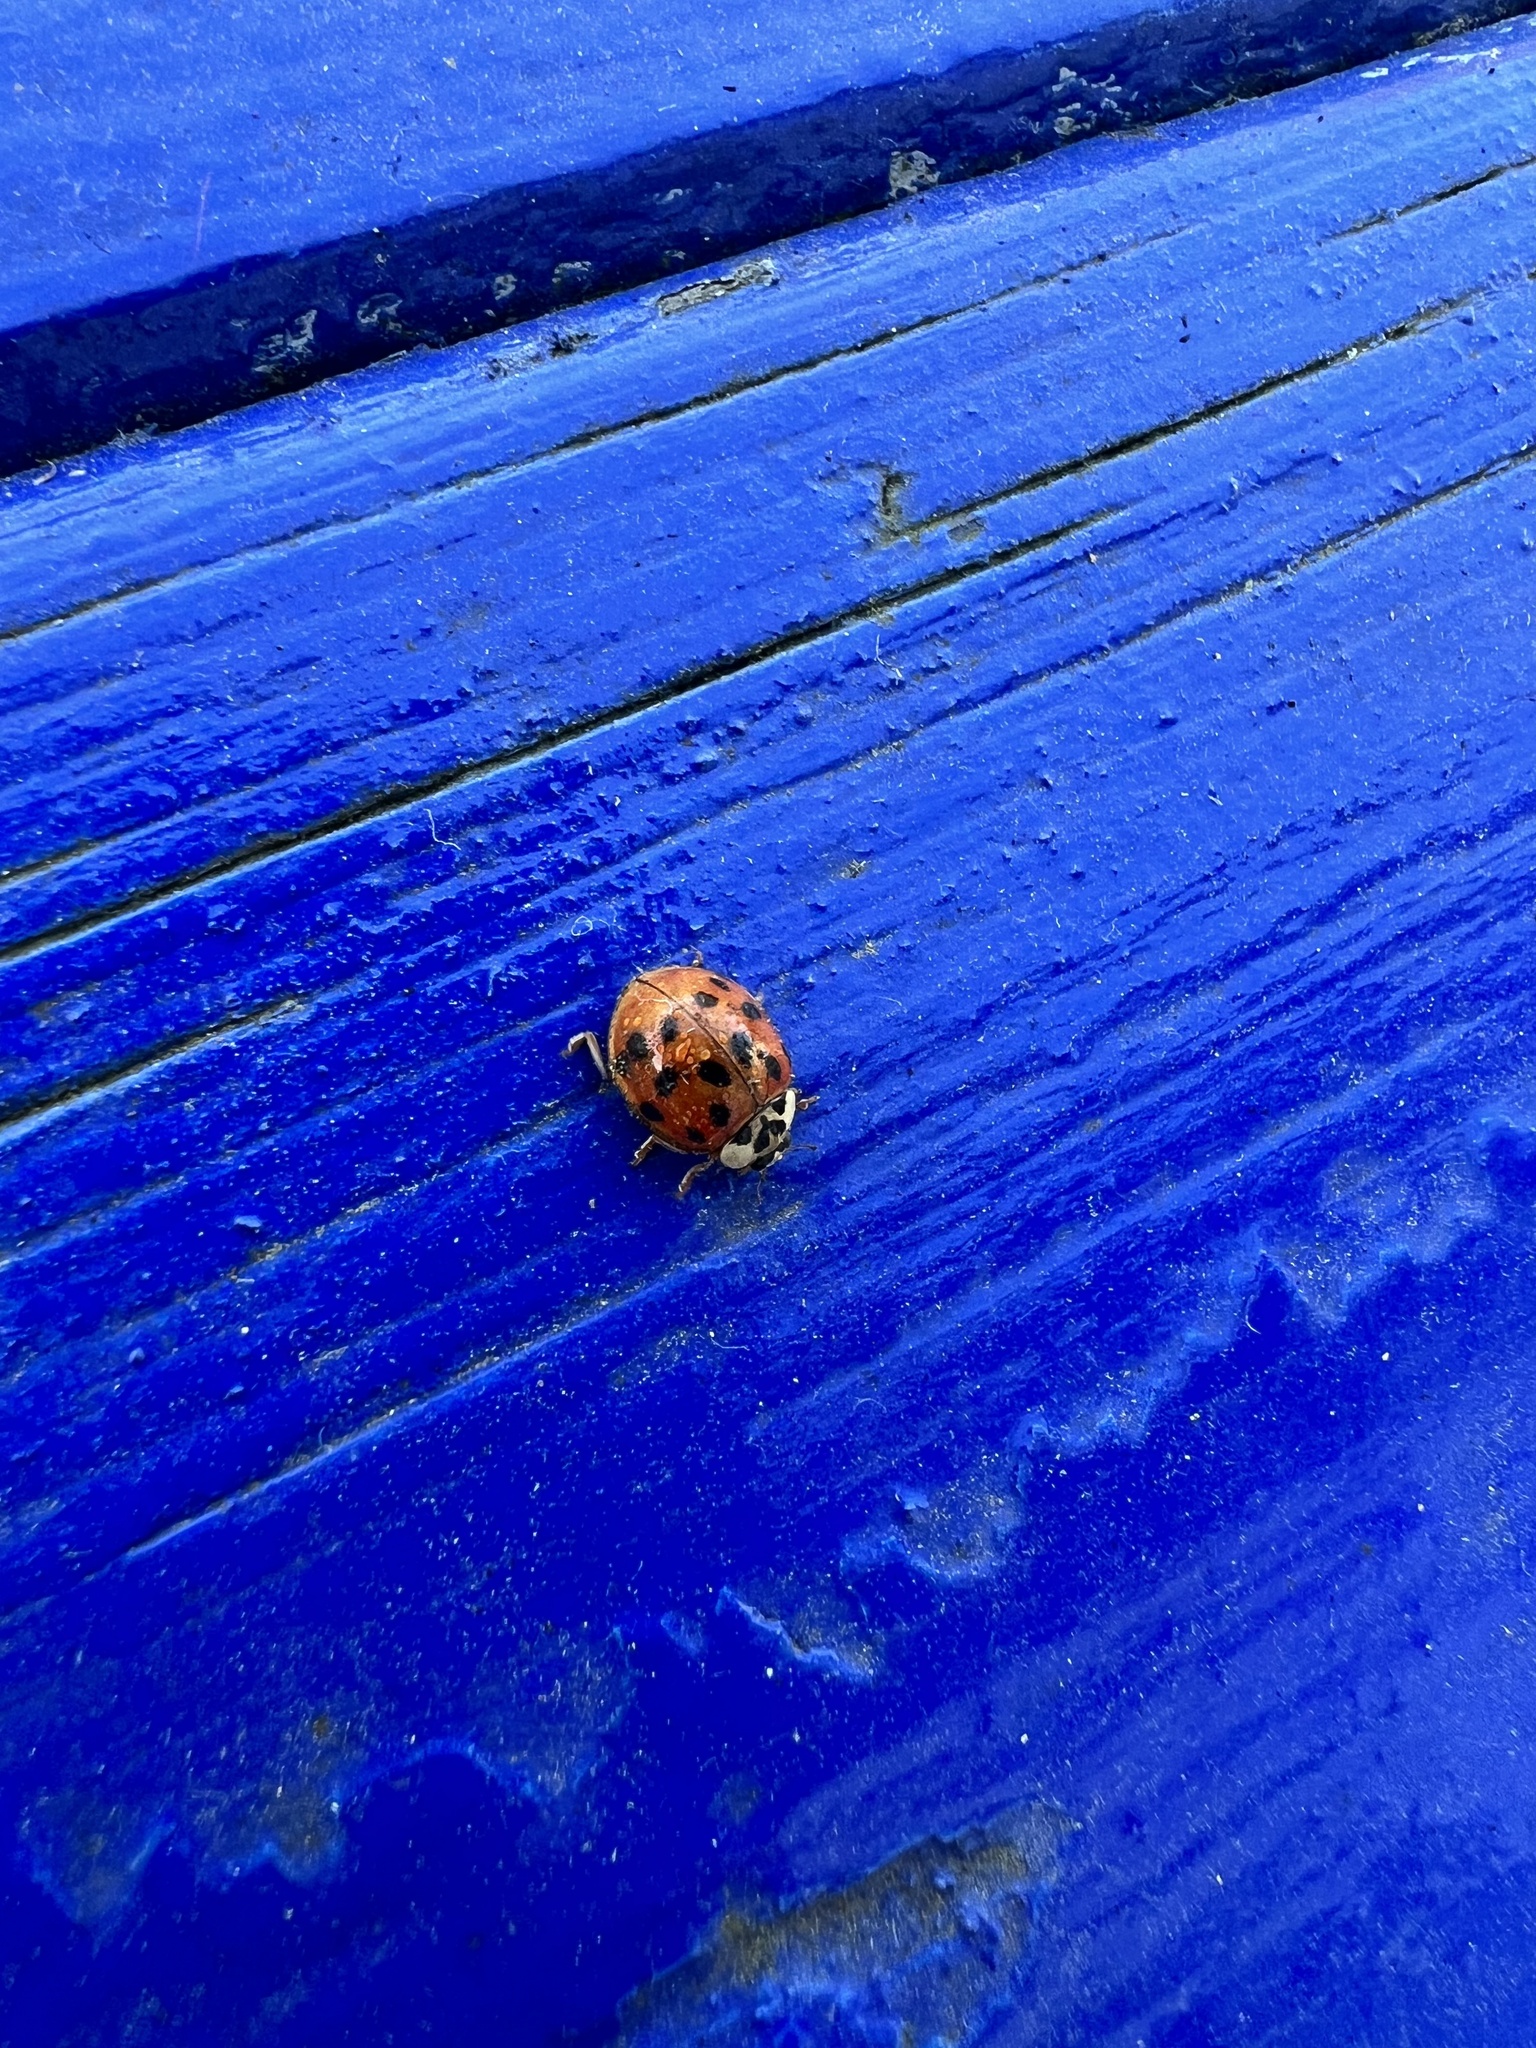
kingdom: Animalia
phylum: Arthropoda
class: Insecta
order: Coleoptera
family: Coccinellidae
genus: Harmonia
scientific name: Harmonia axyridis
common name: Harlequin ladybird
